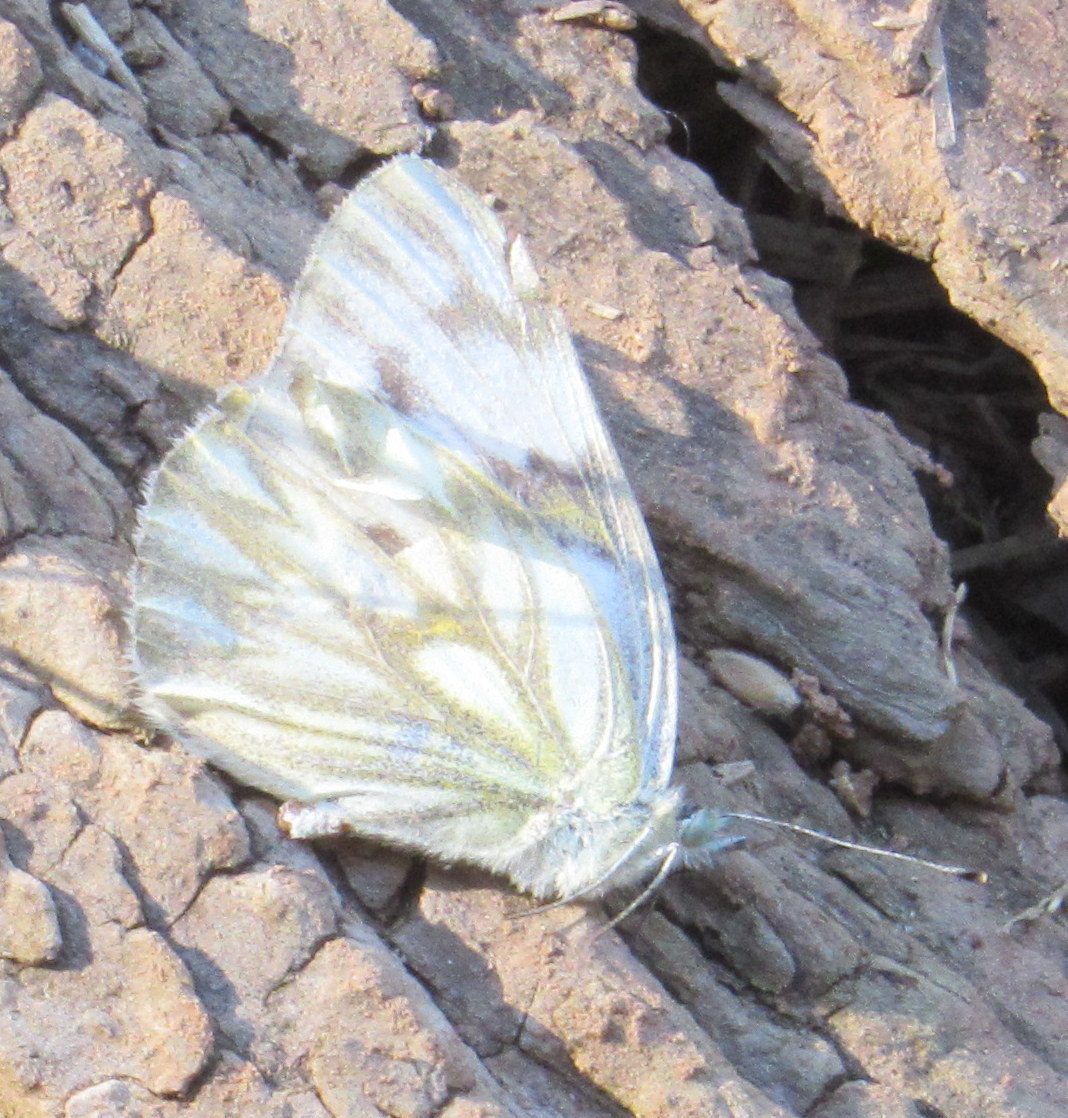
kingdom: Animalia
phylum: Arthropoda
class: Insecta
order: Lepidoptera
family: Pieridae
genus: Pontia
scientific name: Pontia protodice
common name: Checkered white
